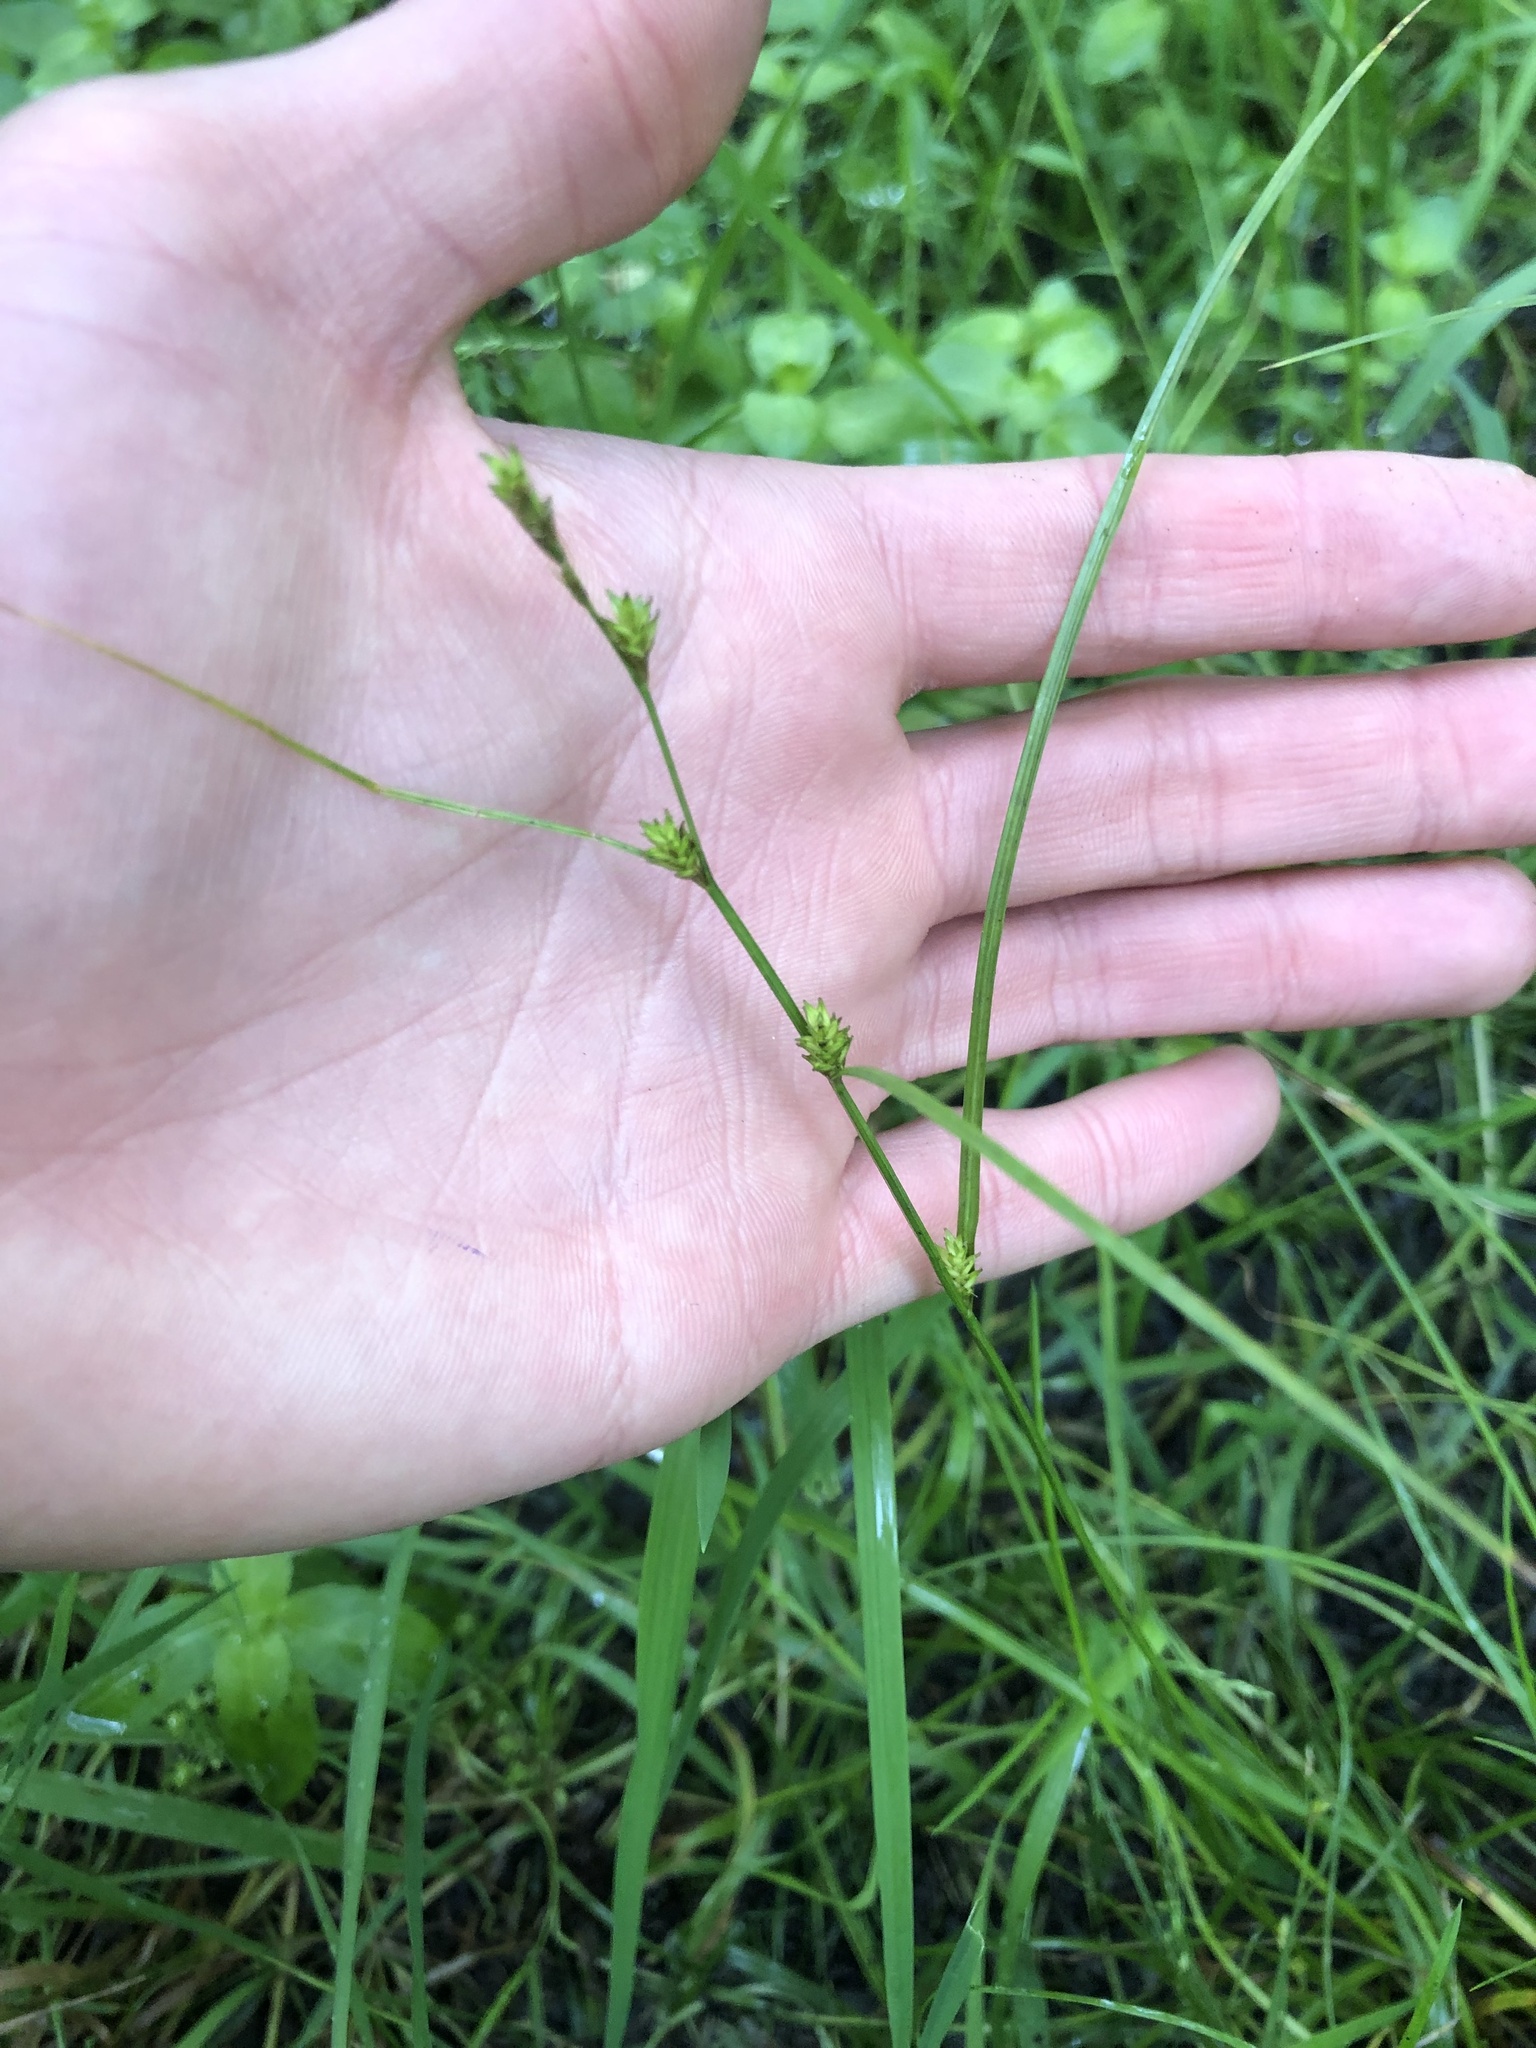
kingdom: Plantae
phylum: Tracheophyta
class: Liliopsida
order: Poales
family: Cyperaceae
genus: Carex
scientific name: Carex remota
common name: Remote sedge
